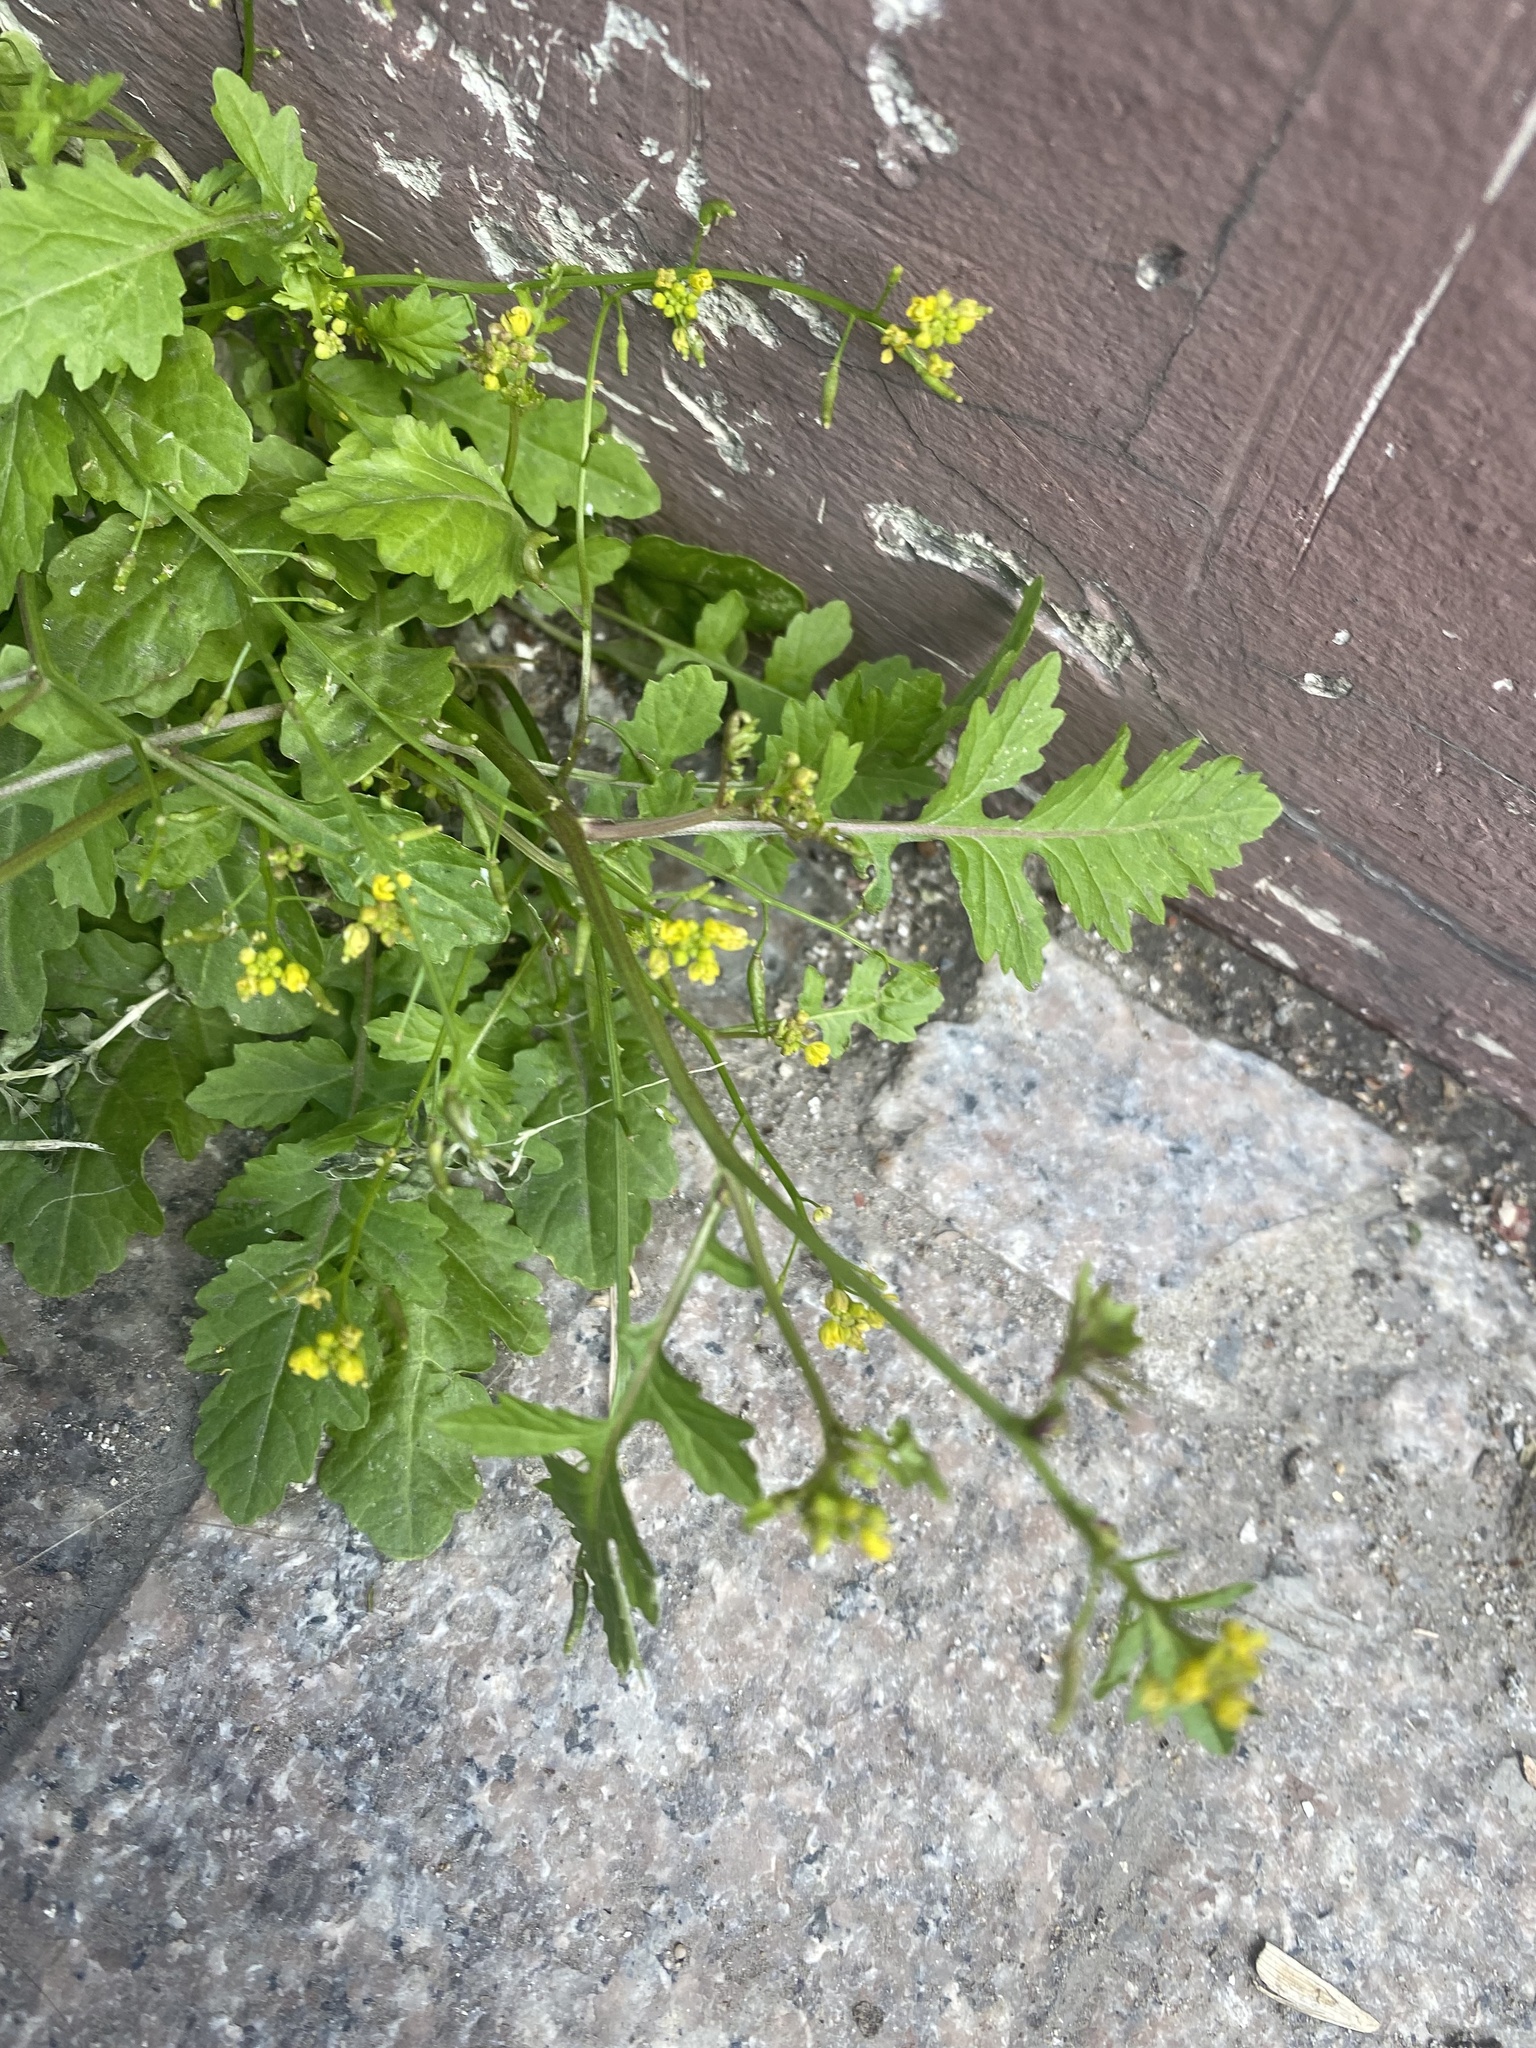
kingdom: Plantae
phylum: Tracheophyta
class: Magnoliopsida
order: Brassicales
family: Brassicaceae
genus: Rorippa
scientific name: Rorippa palustris
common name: Marsh yellow-cress
